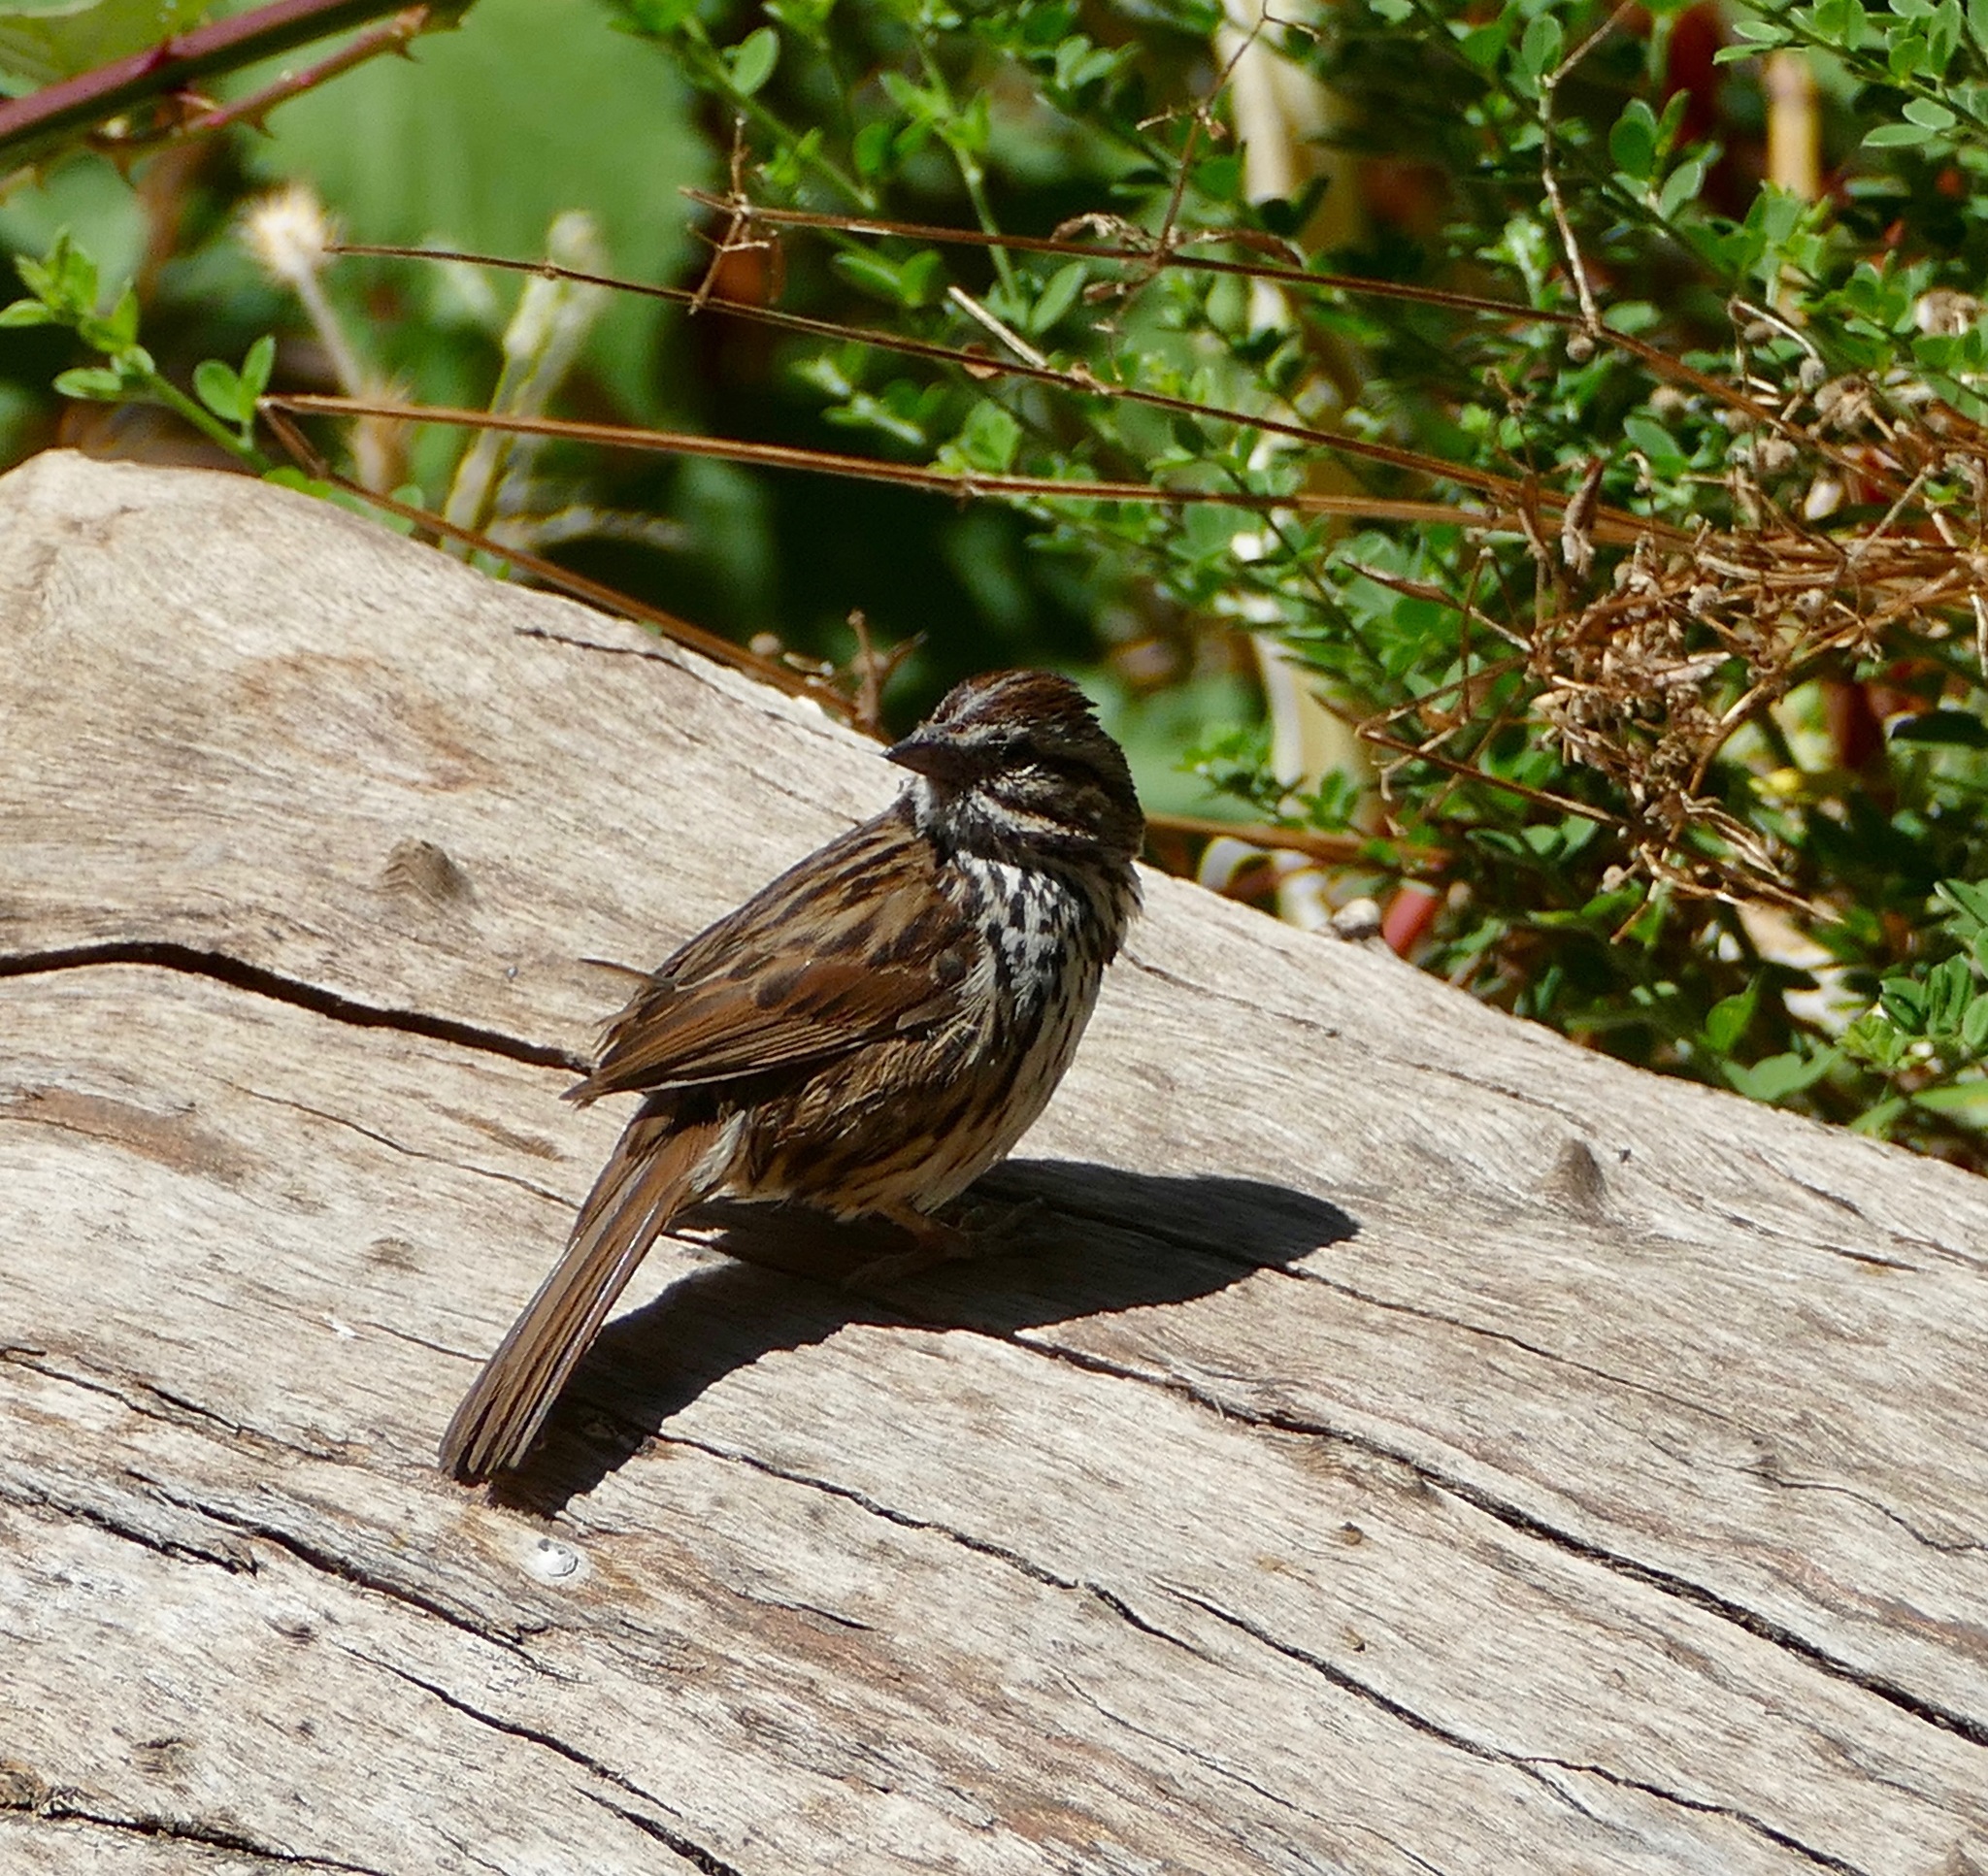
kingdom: Animalia
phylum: Chordata
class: Aves
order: Passeriformes
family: Passerellidae
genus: Melospiza
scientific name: Melospiza melodia
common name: Song sparrow
